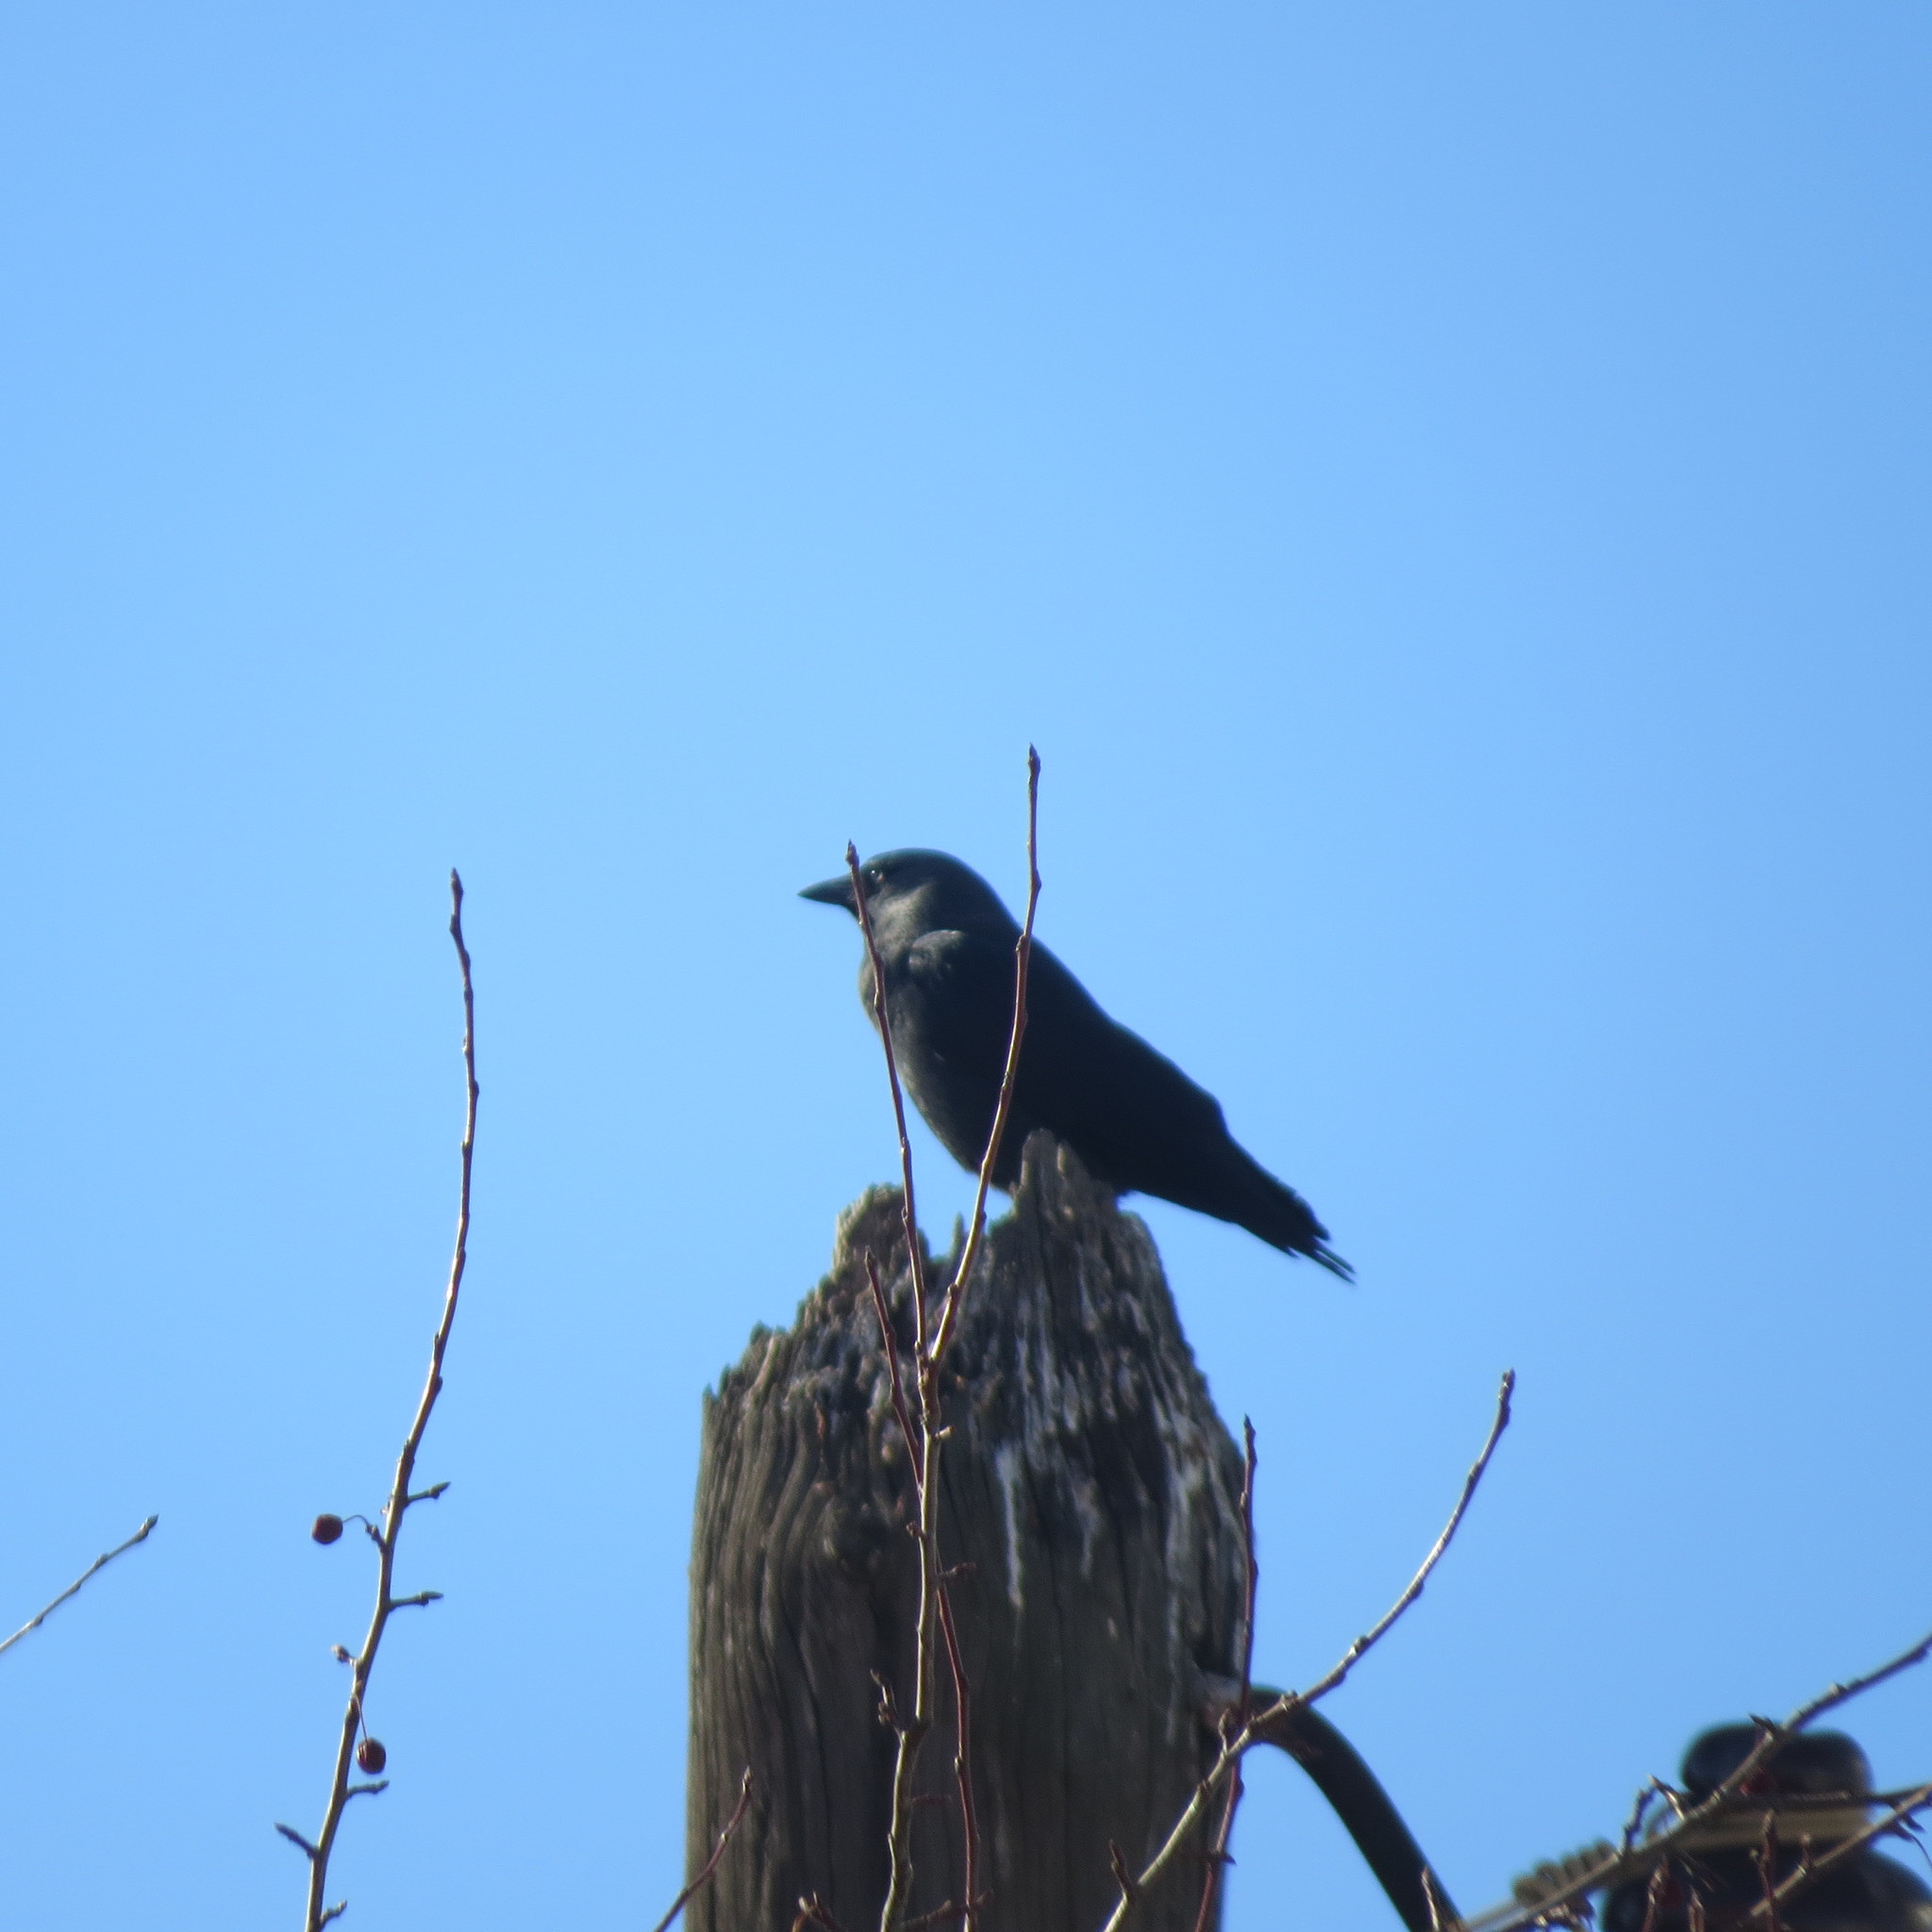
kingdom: Animalia
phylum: Chordata
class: Aves
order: Passeriformes
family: Corvidae
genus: Coloeus
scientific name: Coloeus monedula
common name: Western jackdaw
